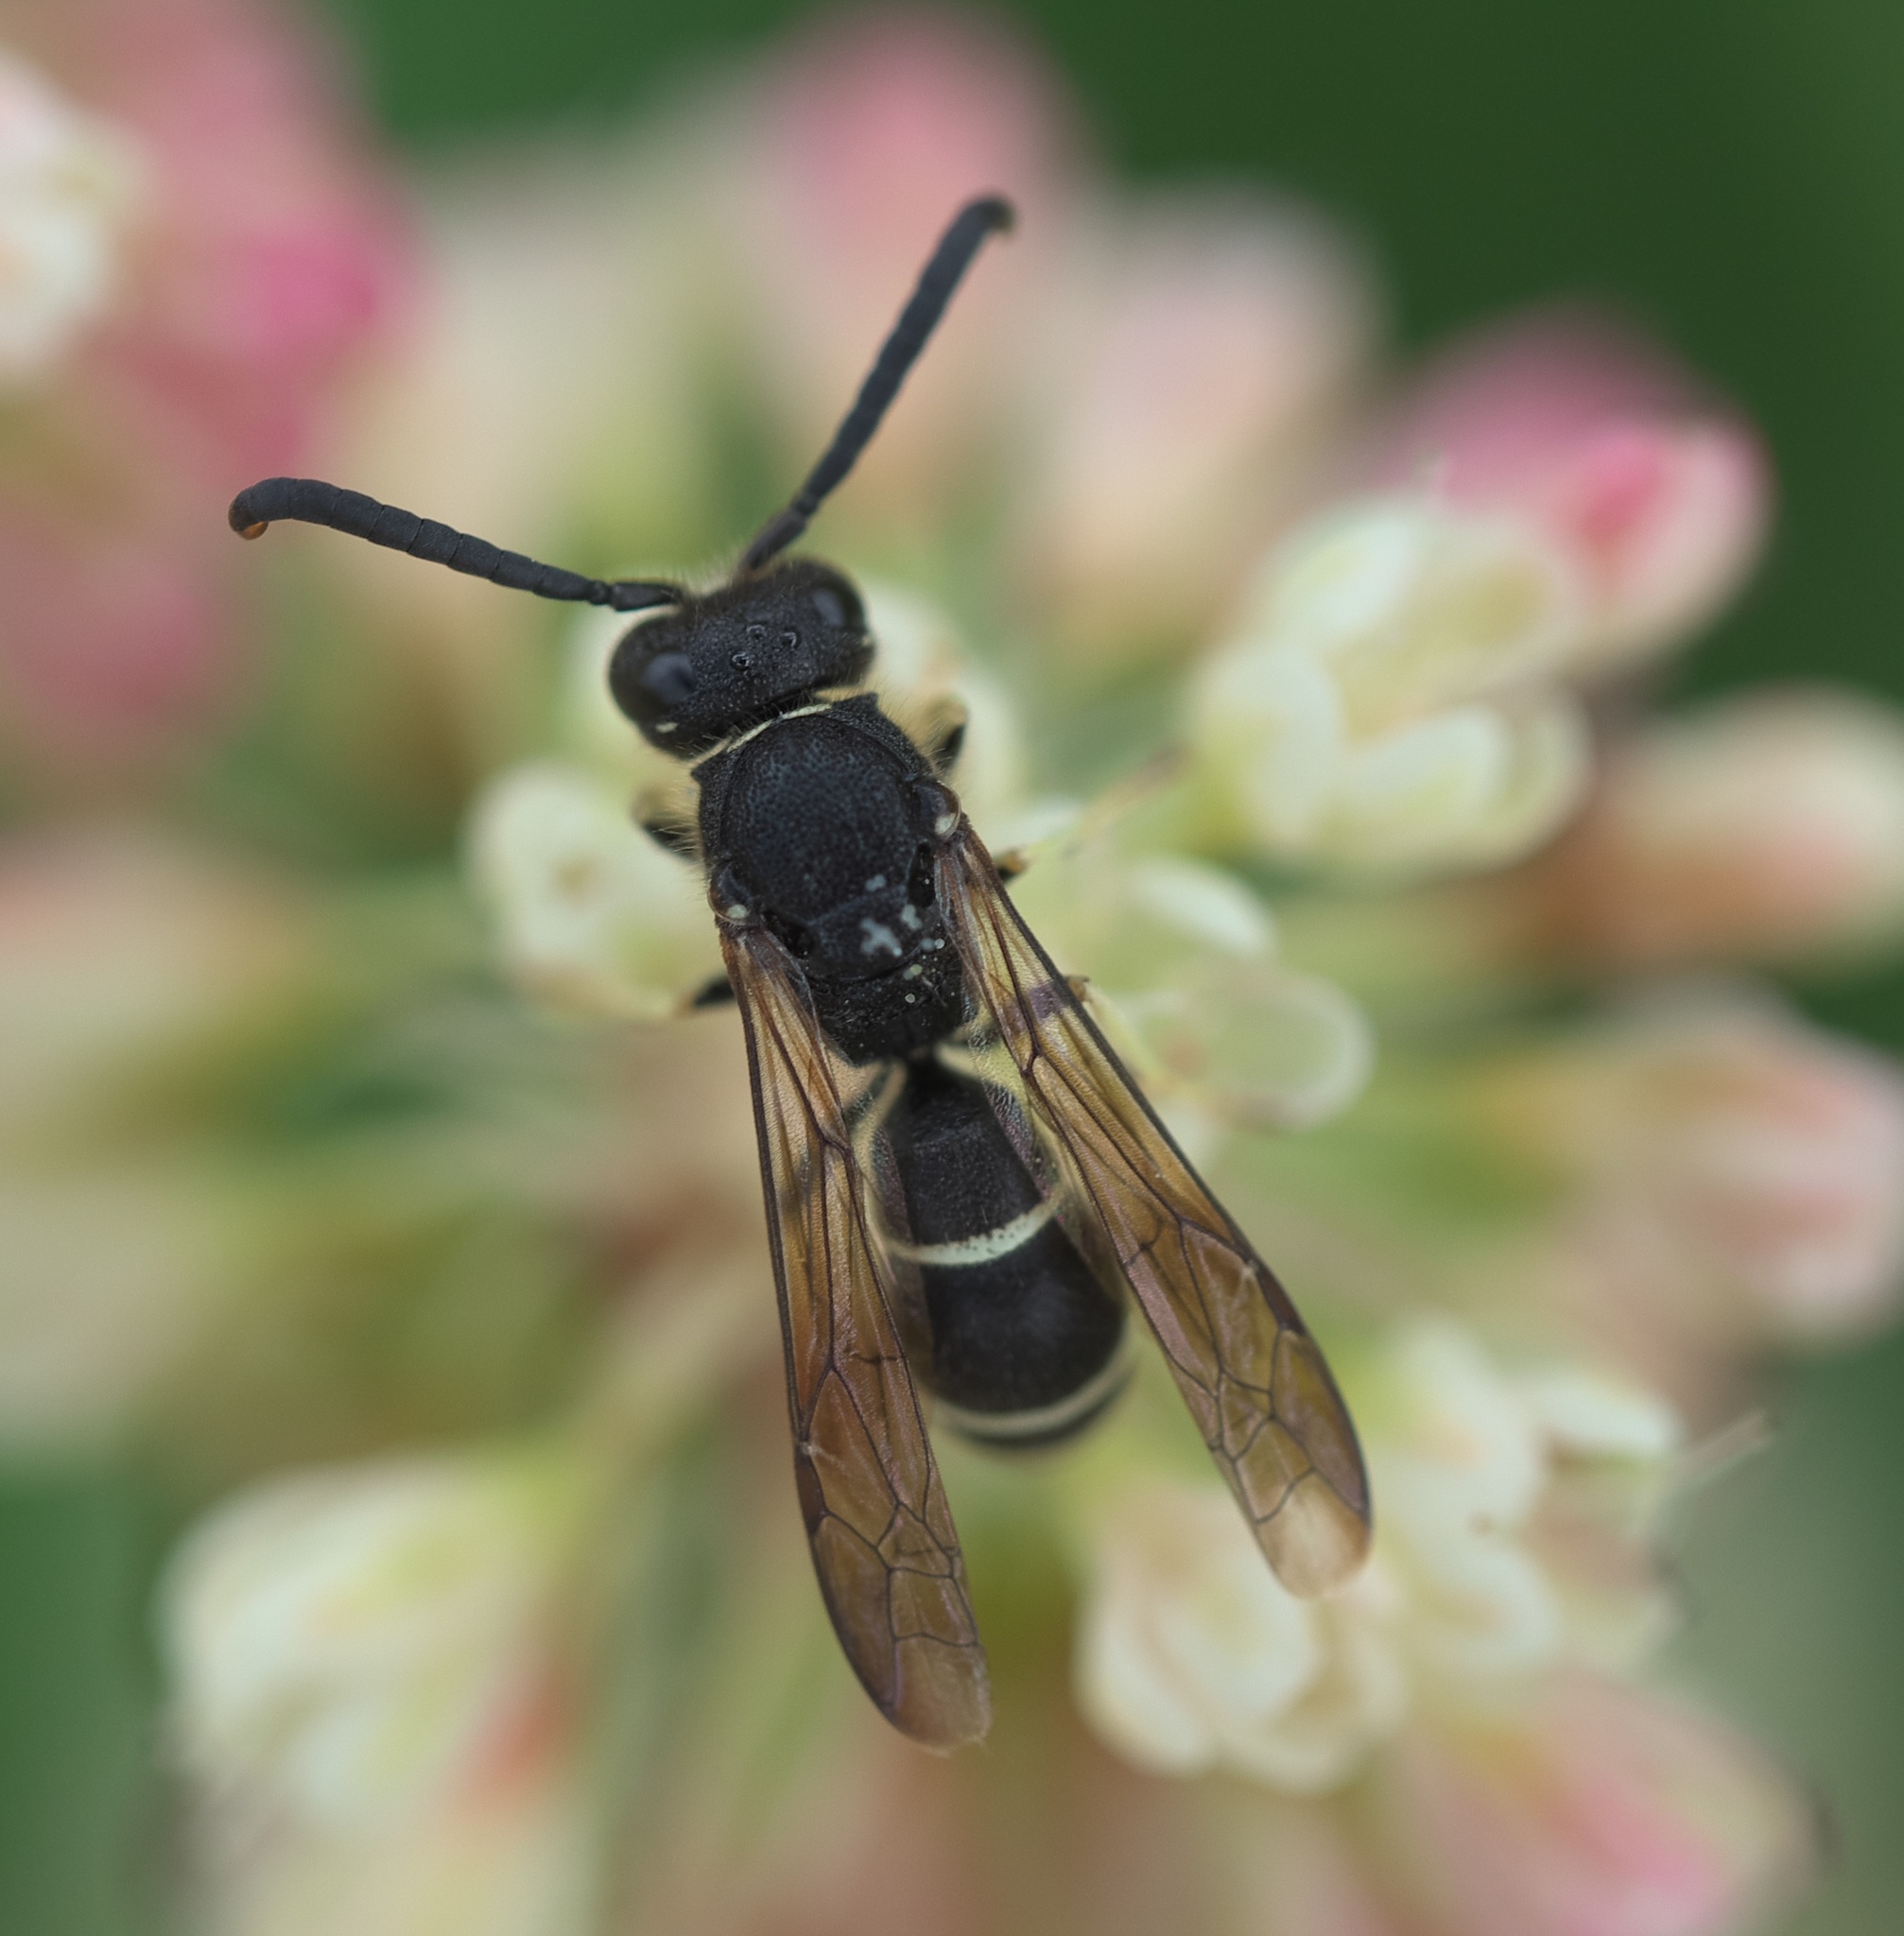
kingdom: Animalia
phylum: Arthropoda
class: Insecta
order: Hymenoptera
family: Vespidae
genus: Ancistrocerus
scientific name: Ancistrocerus albolacteus
